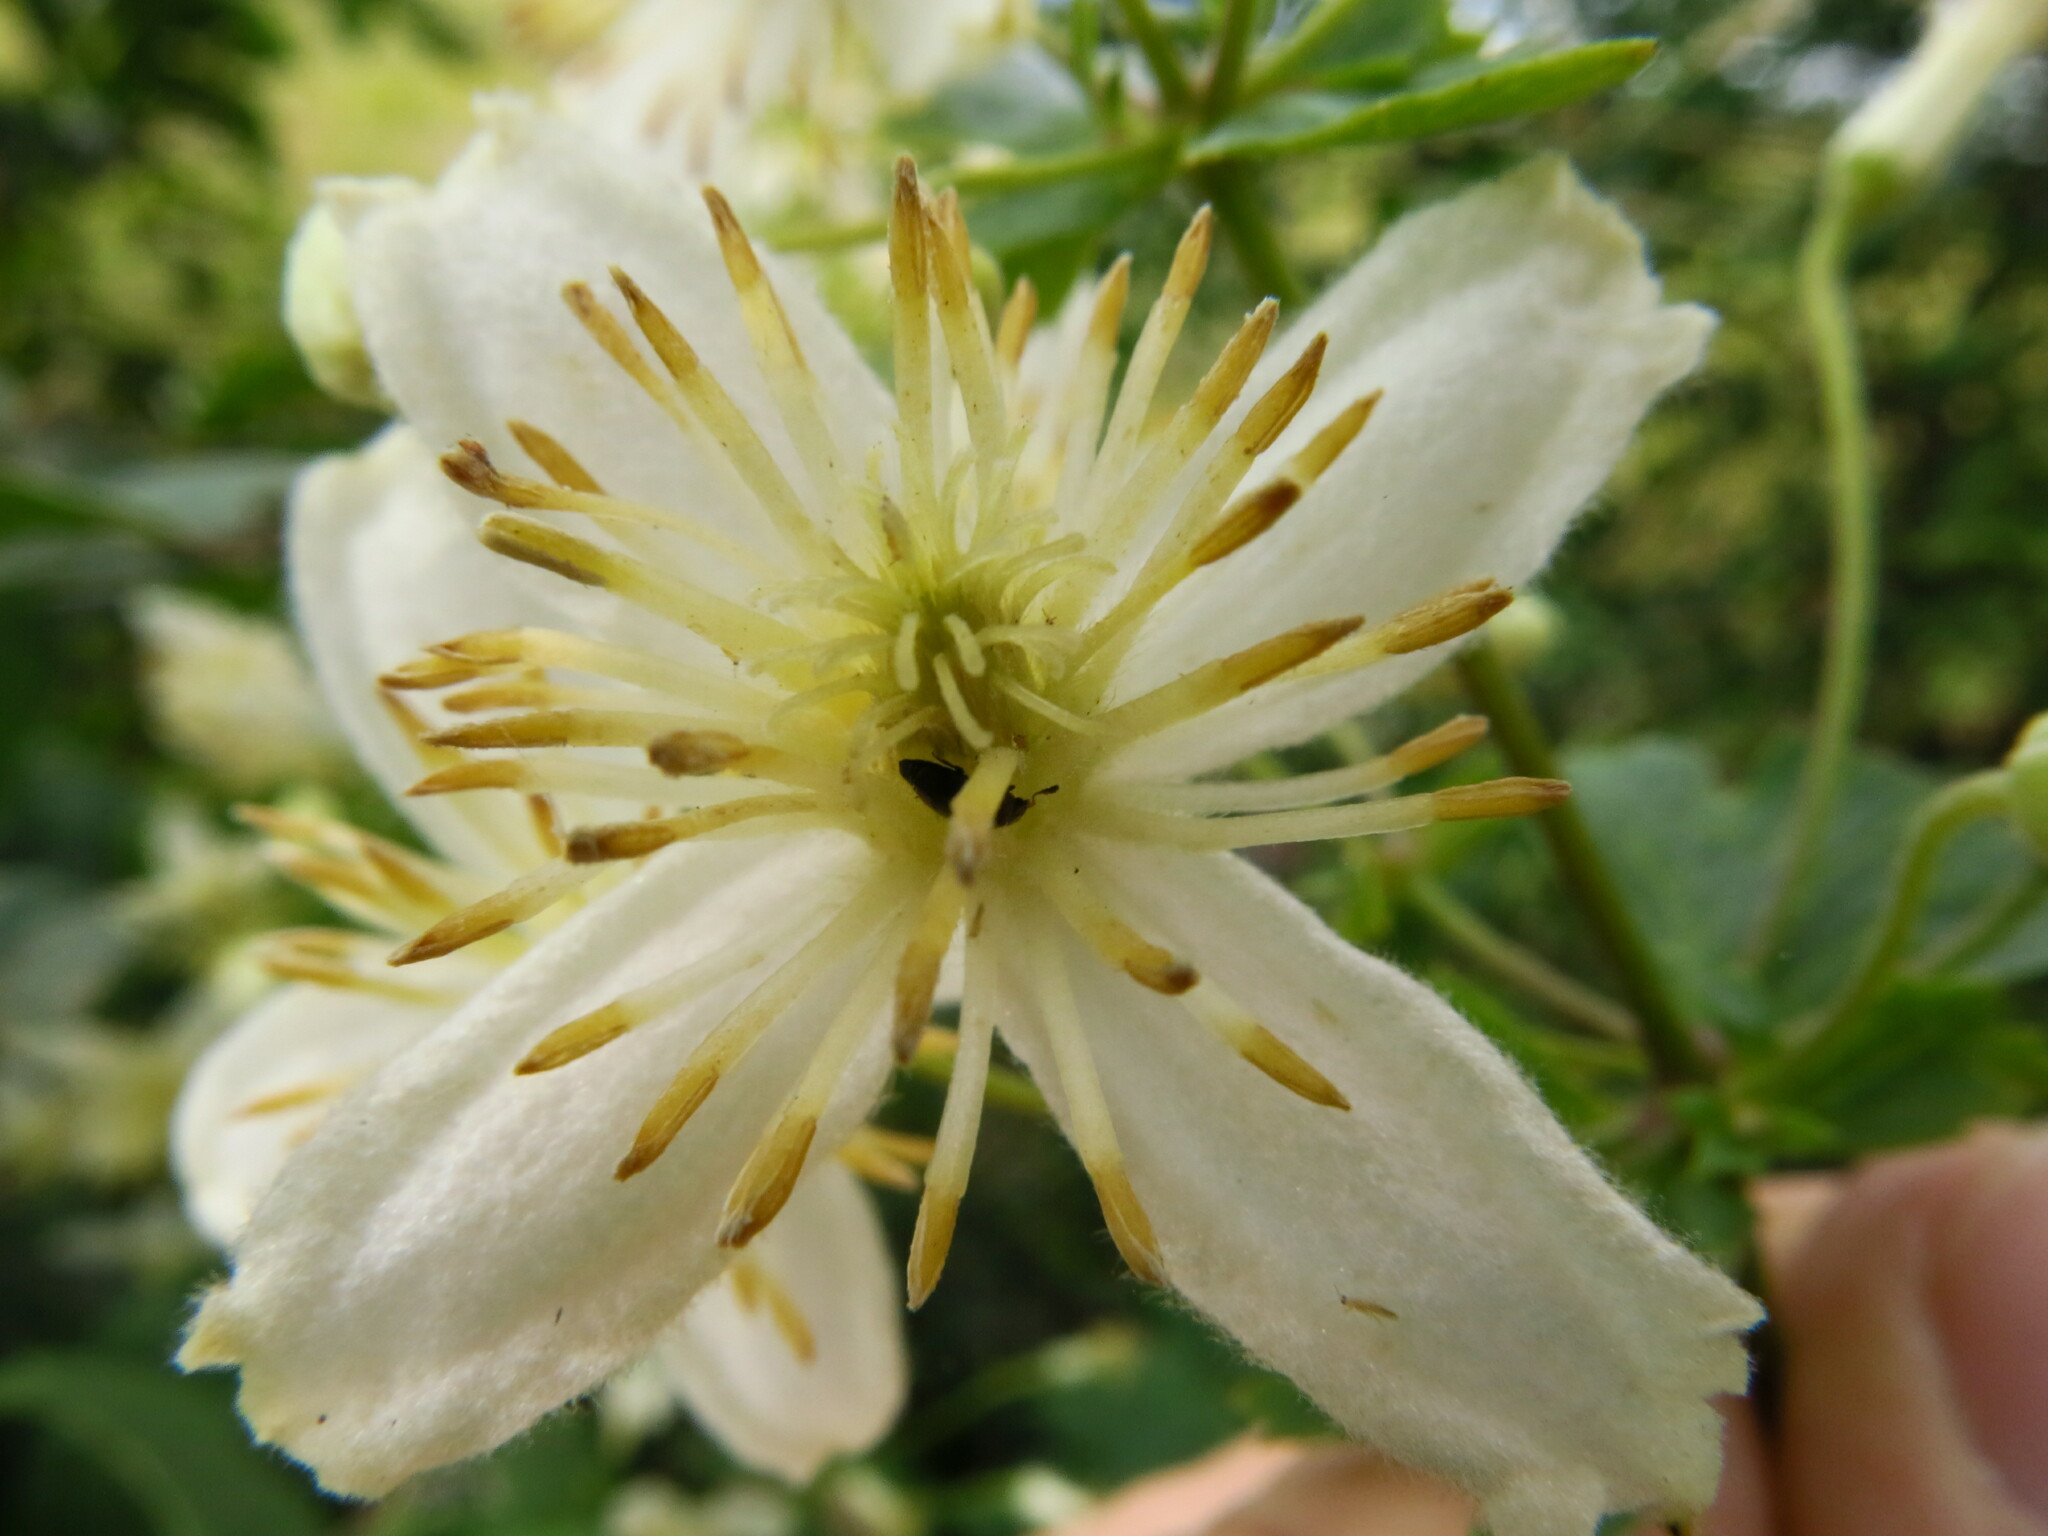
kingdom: Plantae
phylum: Tracheophyta
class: Magnoliopsida
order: Ranunculales
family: Ranunculaceae
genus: Clematis
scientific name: Clematis brachiata
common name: Traveler's-joy
